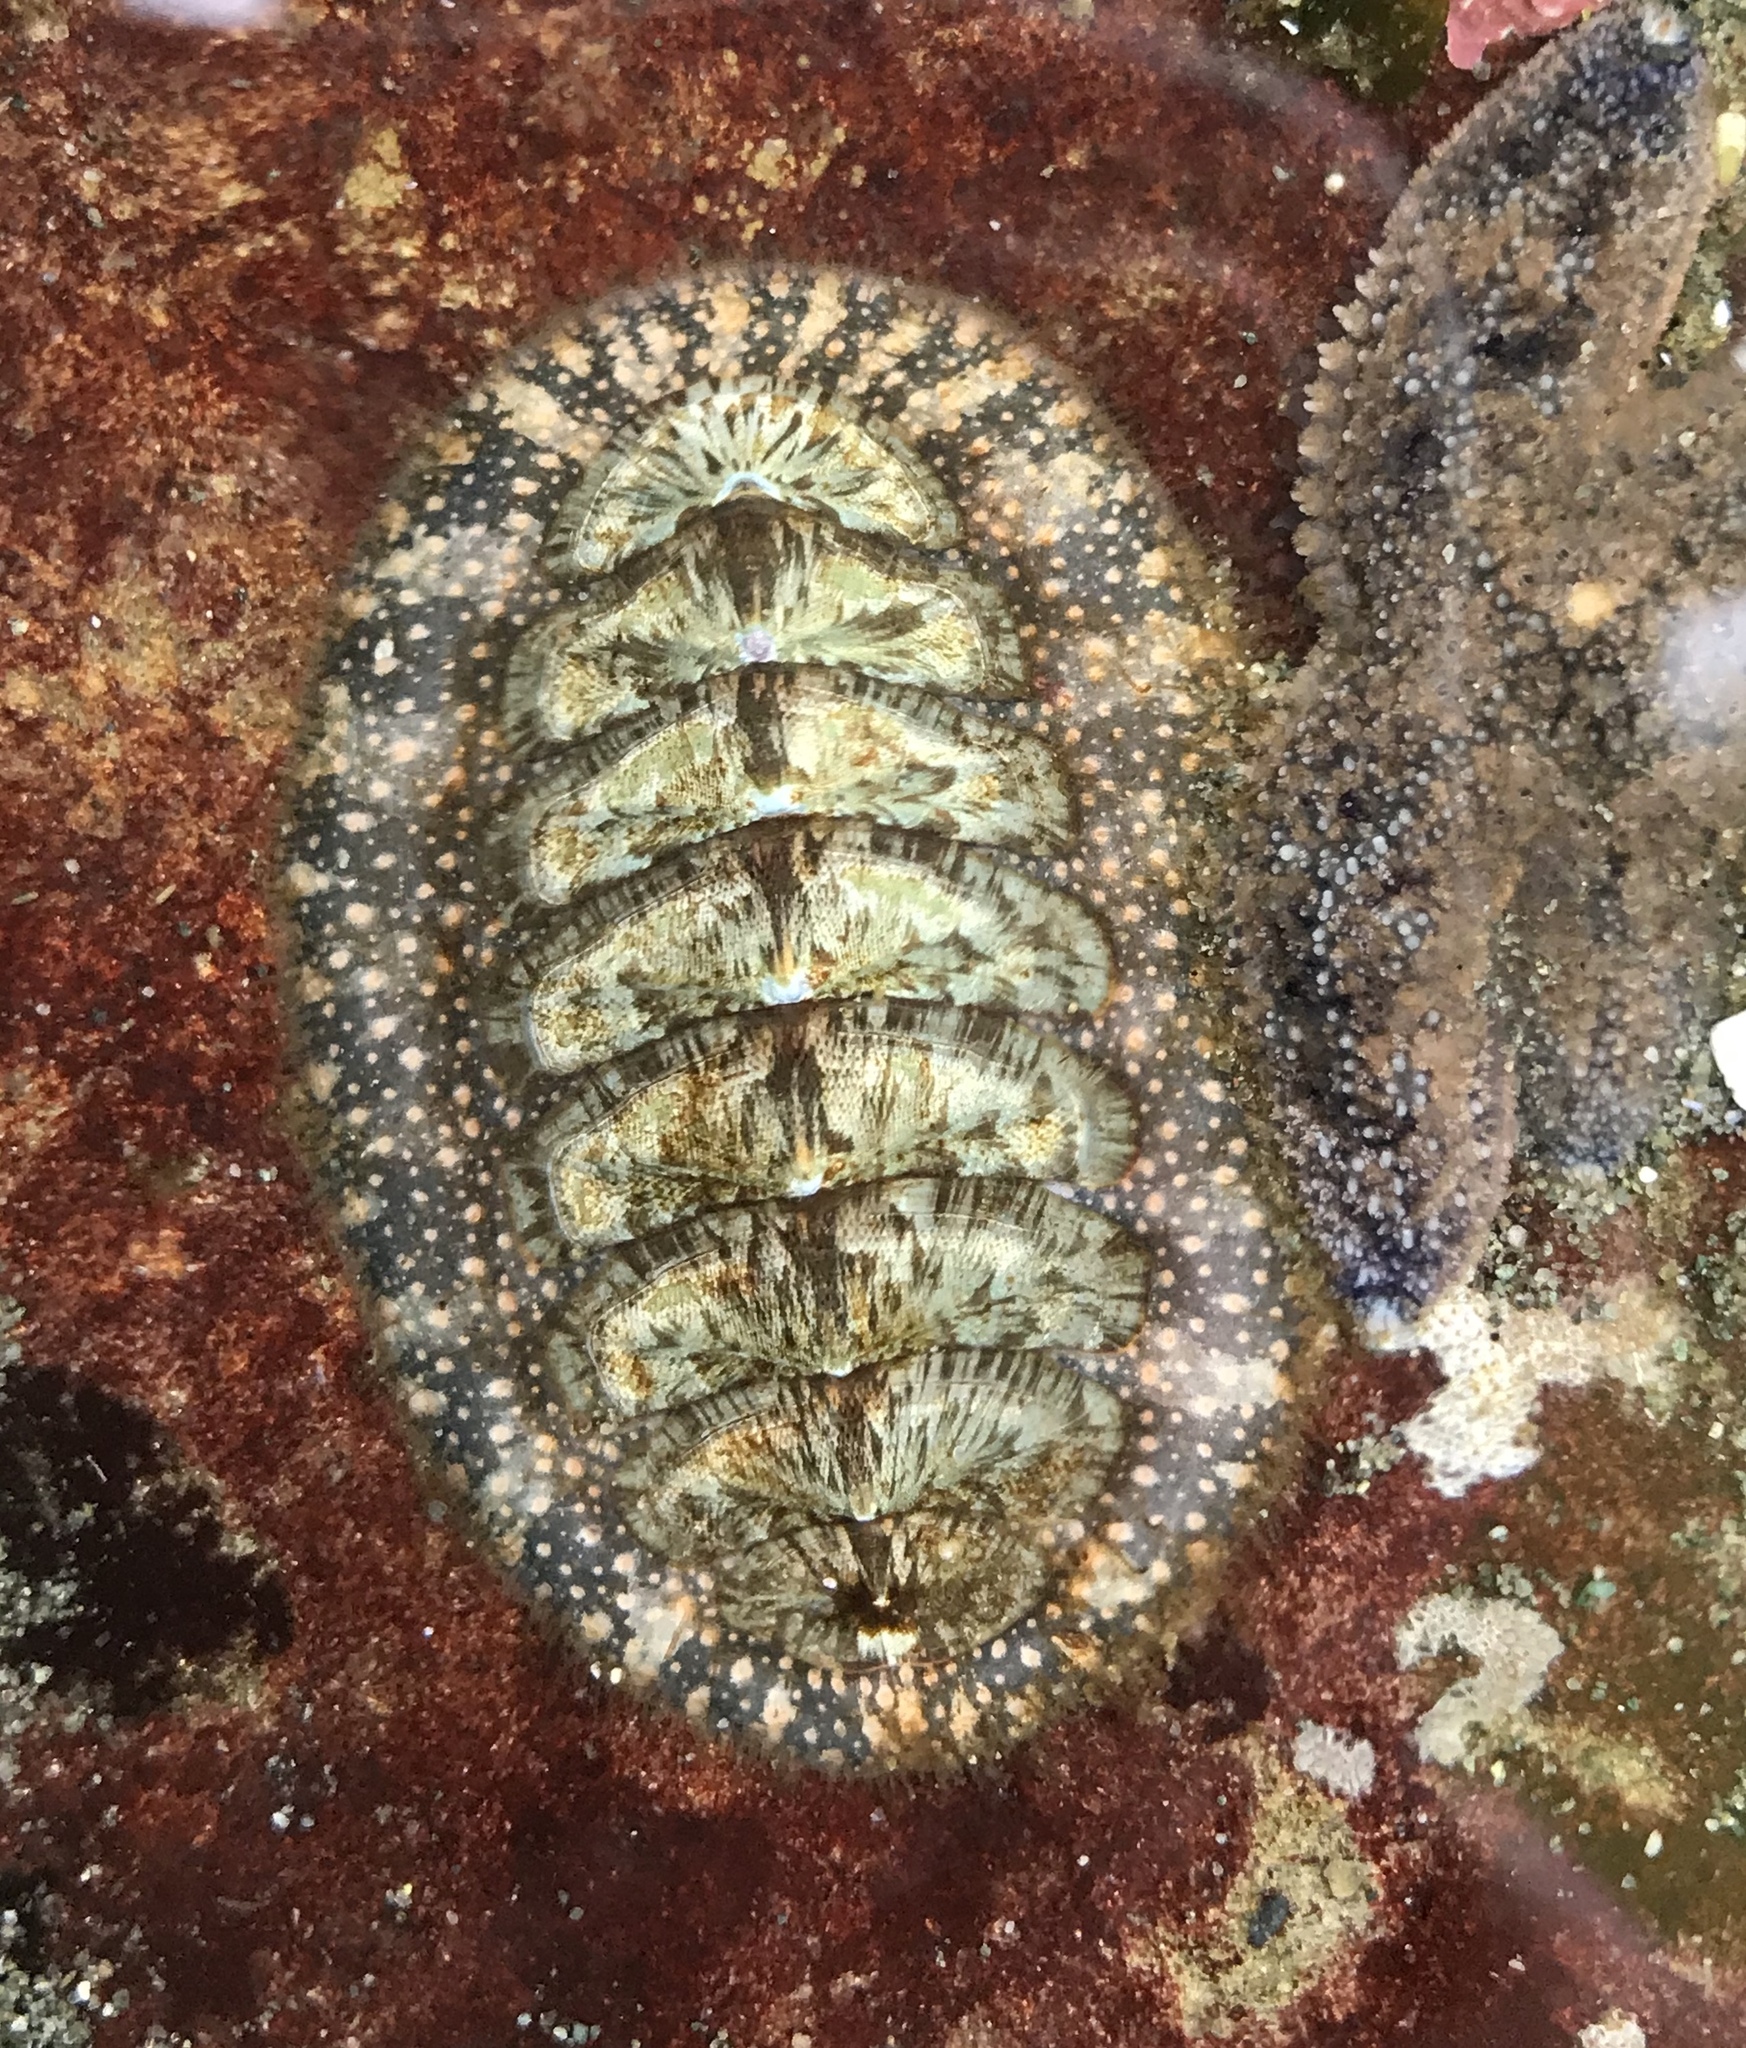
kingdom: Animalia
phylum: Mollusca
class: Polyplacophora
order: Chitonida
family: Mopaliidae
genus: Mopalia
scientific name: Mopalia lignosa
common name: Woody chiton
